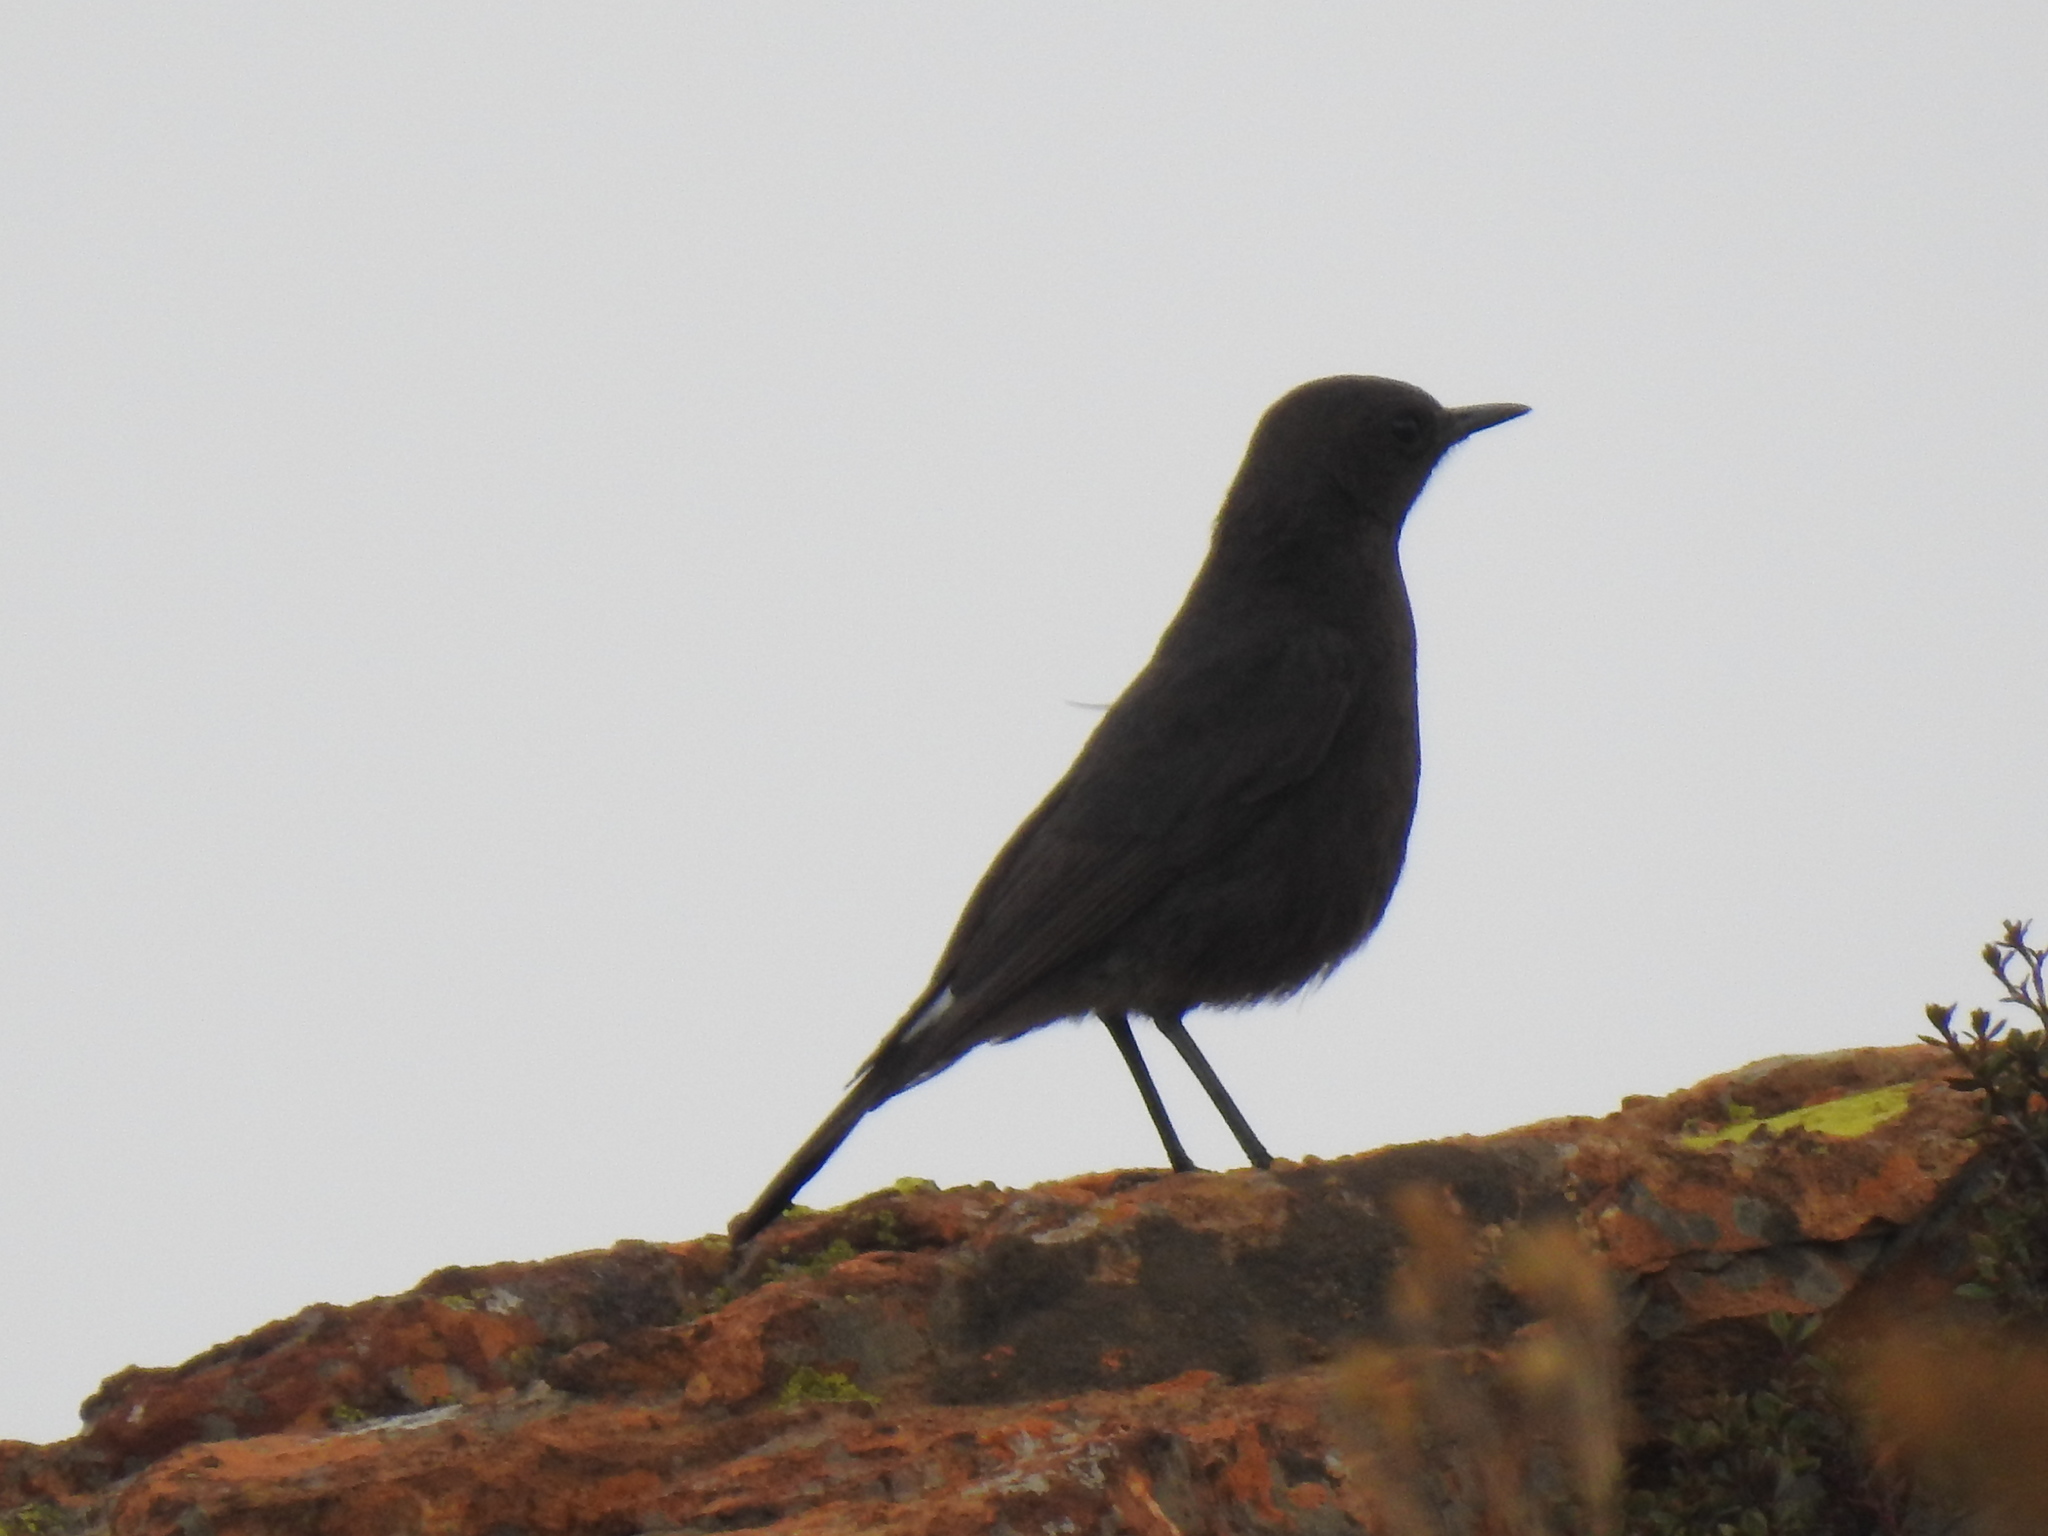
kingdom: Animalia
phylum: Chordata
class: Aves
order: Passeriformes
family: Muscicapidae
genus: Oenanthe
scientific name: Oenanthe monticola
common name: Mountain wheatear
